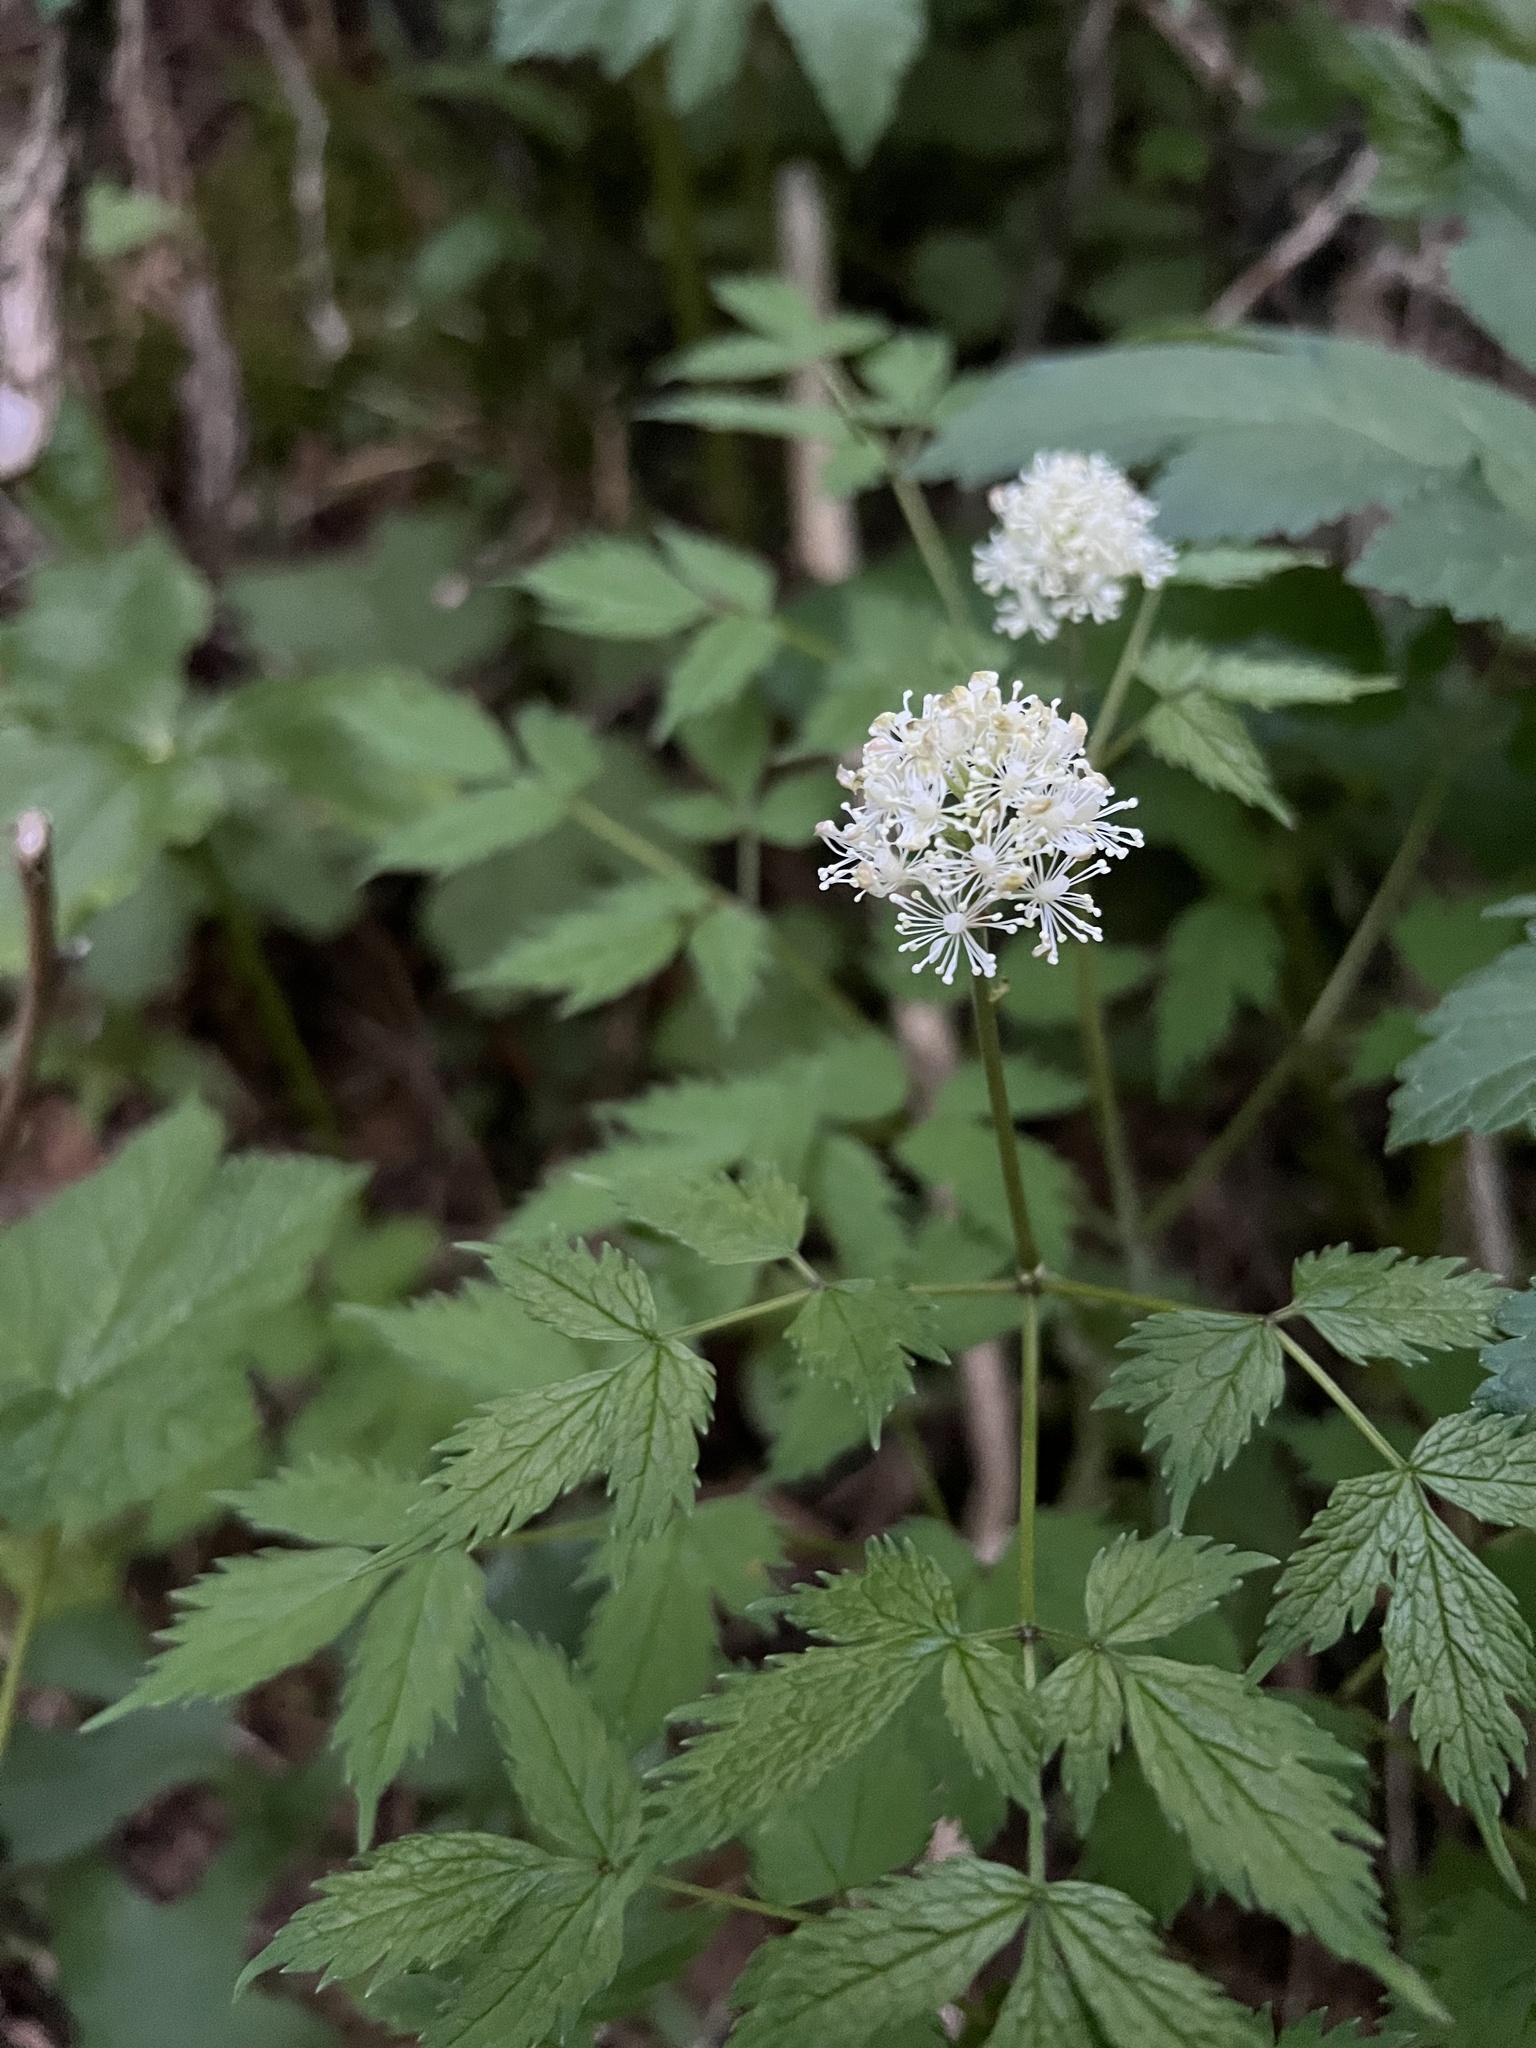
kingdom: Plantae
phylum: Tracheophyta
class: Magnoliopsida
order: Ranunculales
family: Ranunculaceae
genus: Actaea
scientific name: Actaea rubra
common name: Red baneberry
